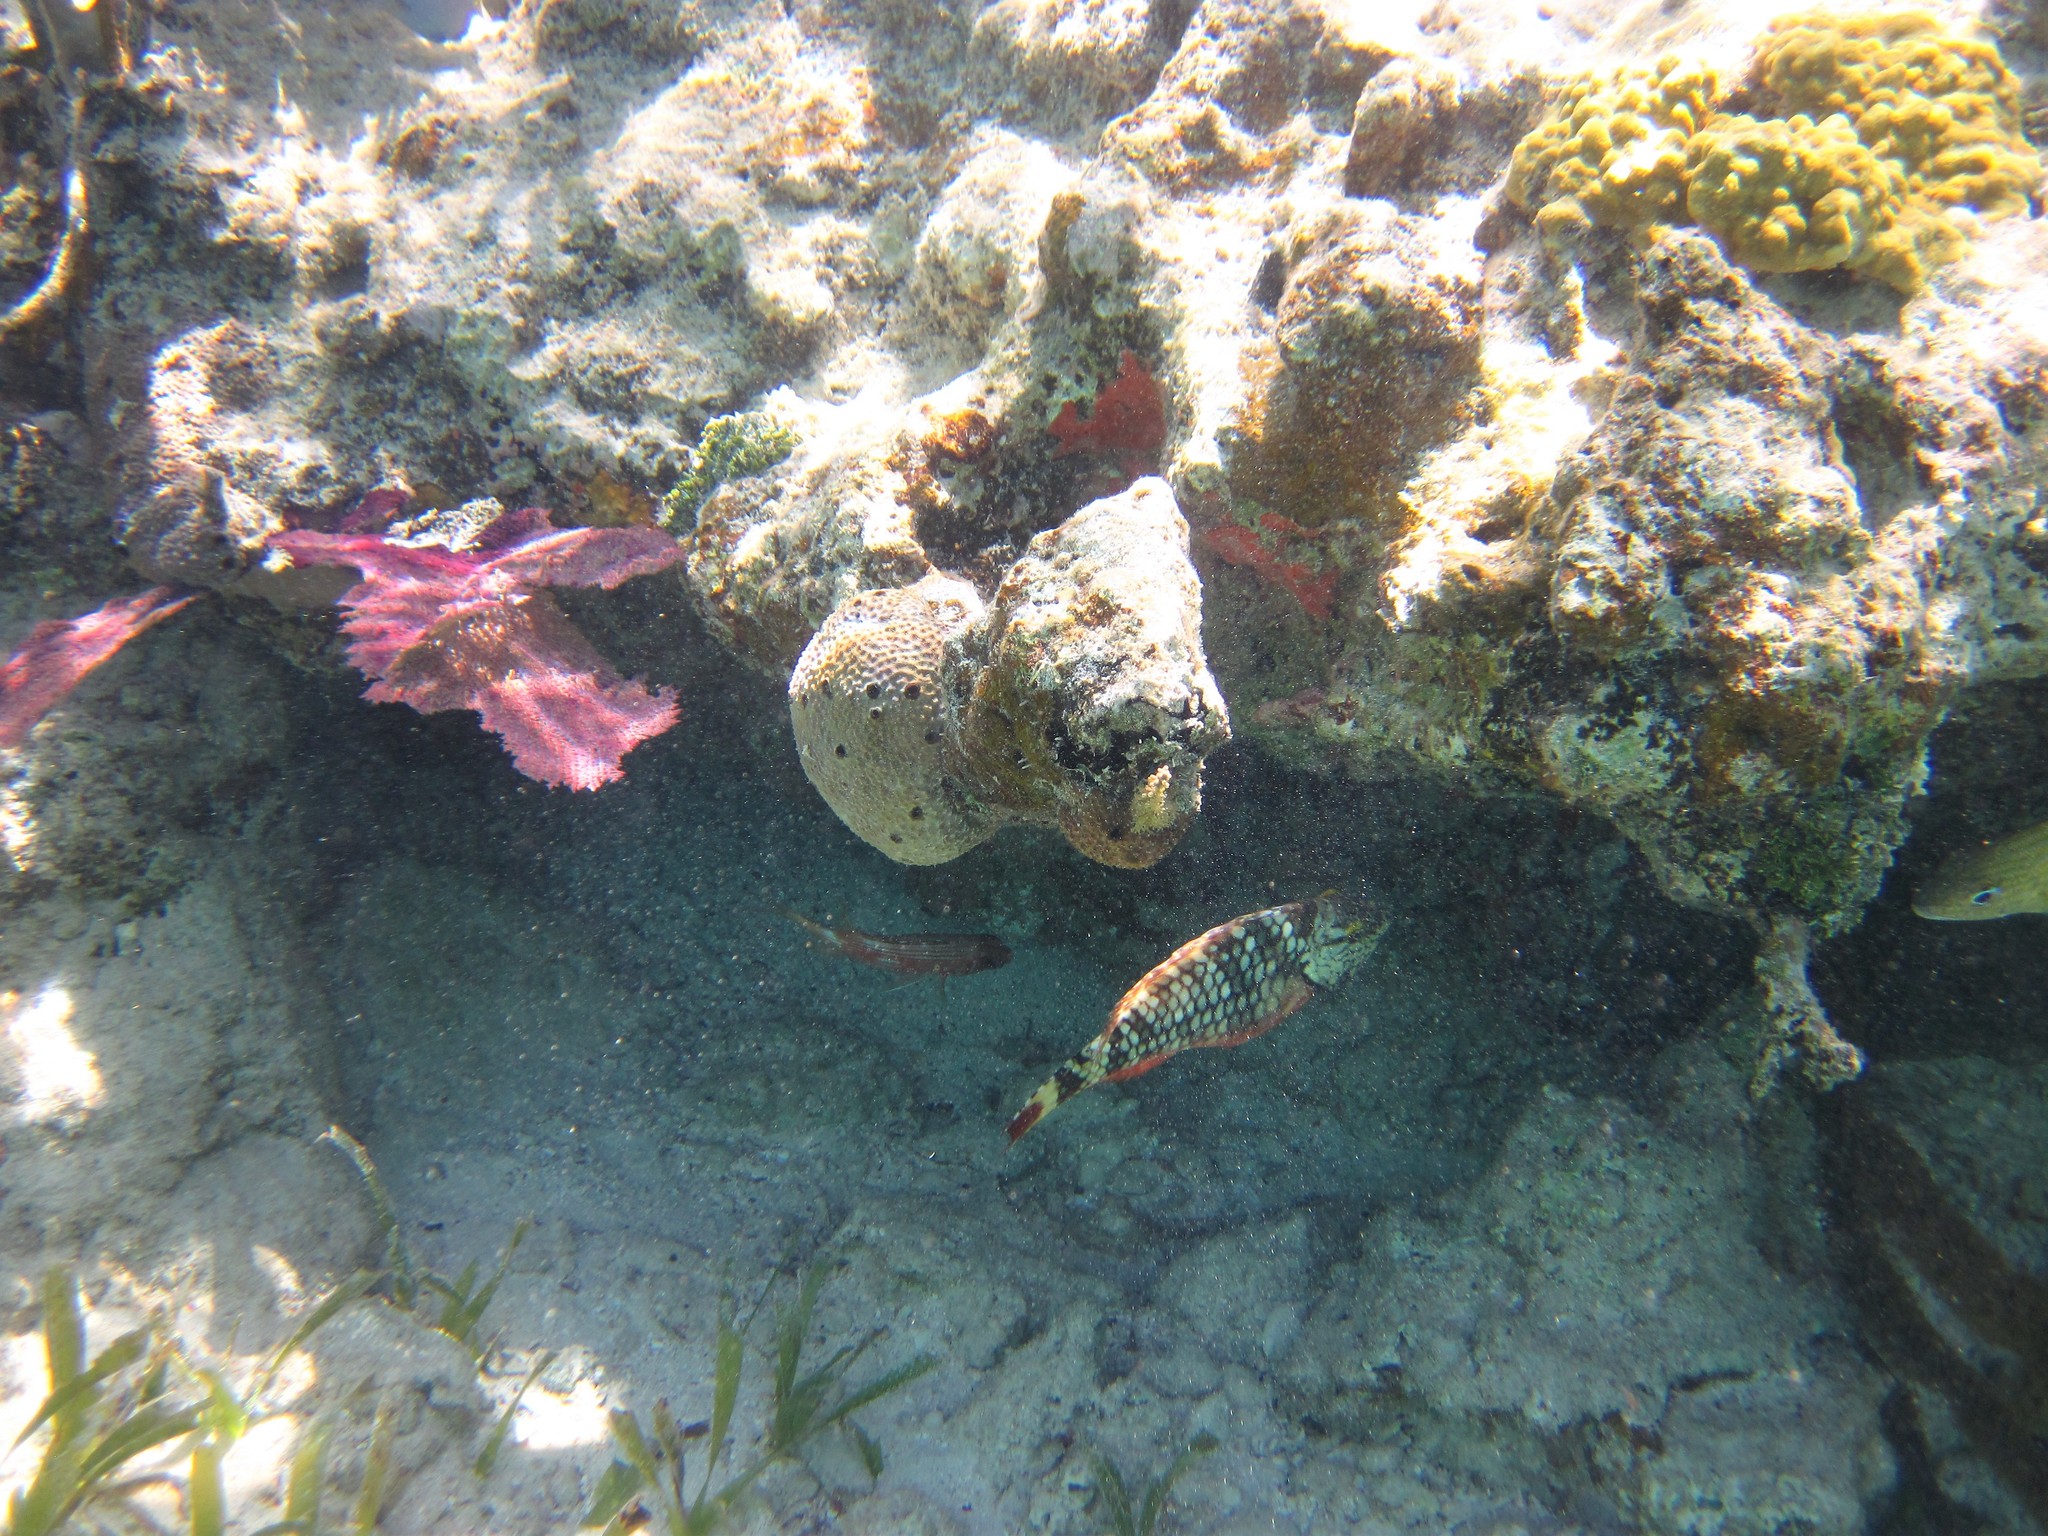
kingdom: Animalia
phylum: Chordata
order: Perciformes
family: Scaridae
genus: Sparisoma
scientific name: Sparisoma viride
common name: Stoplight parrotfish
